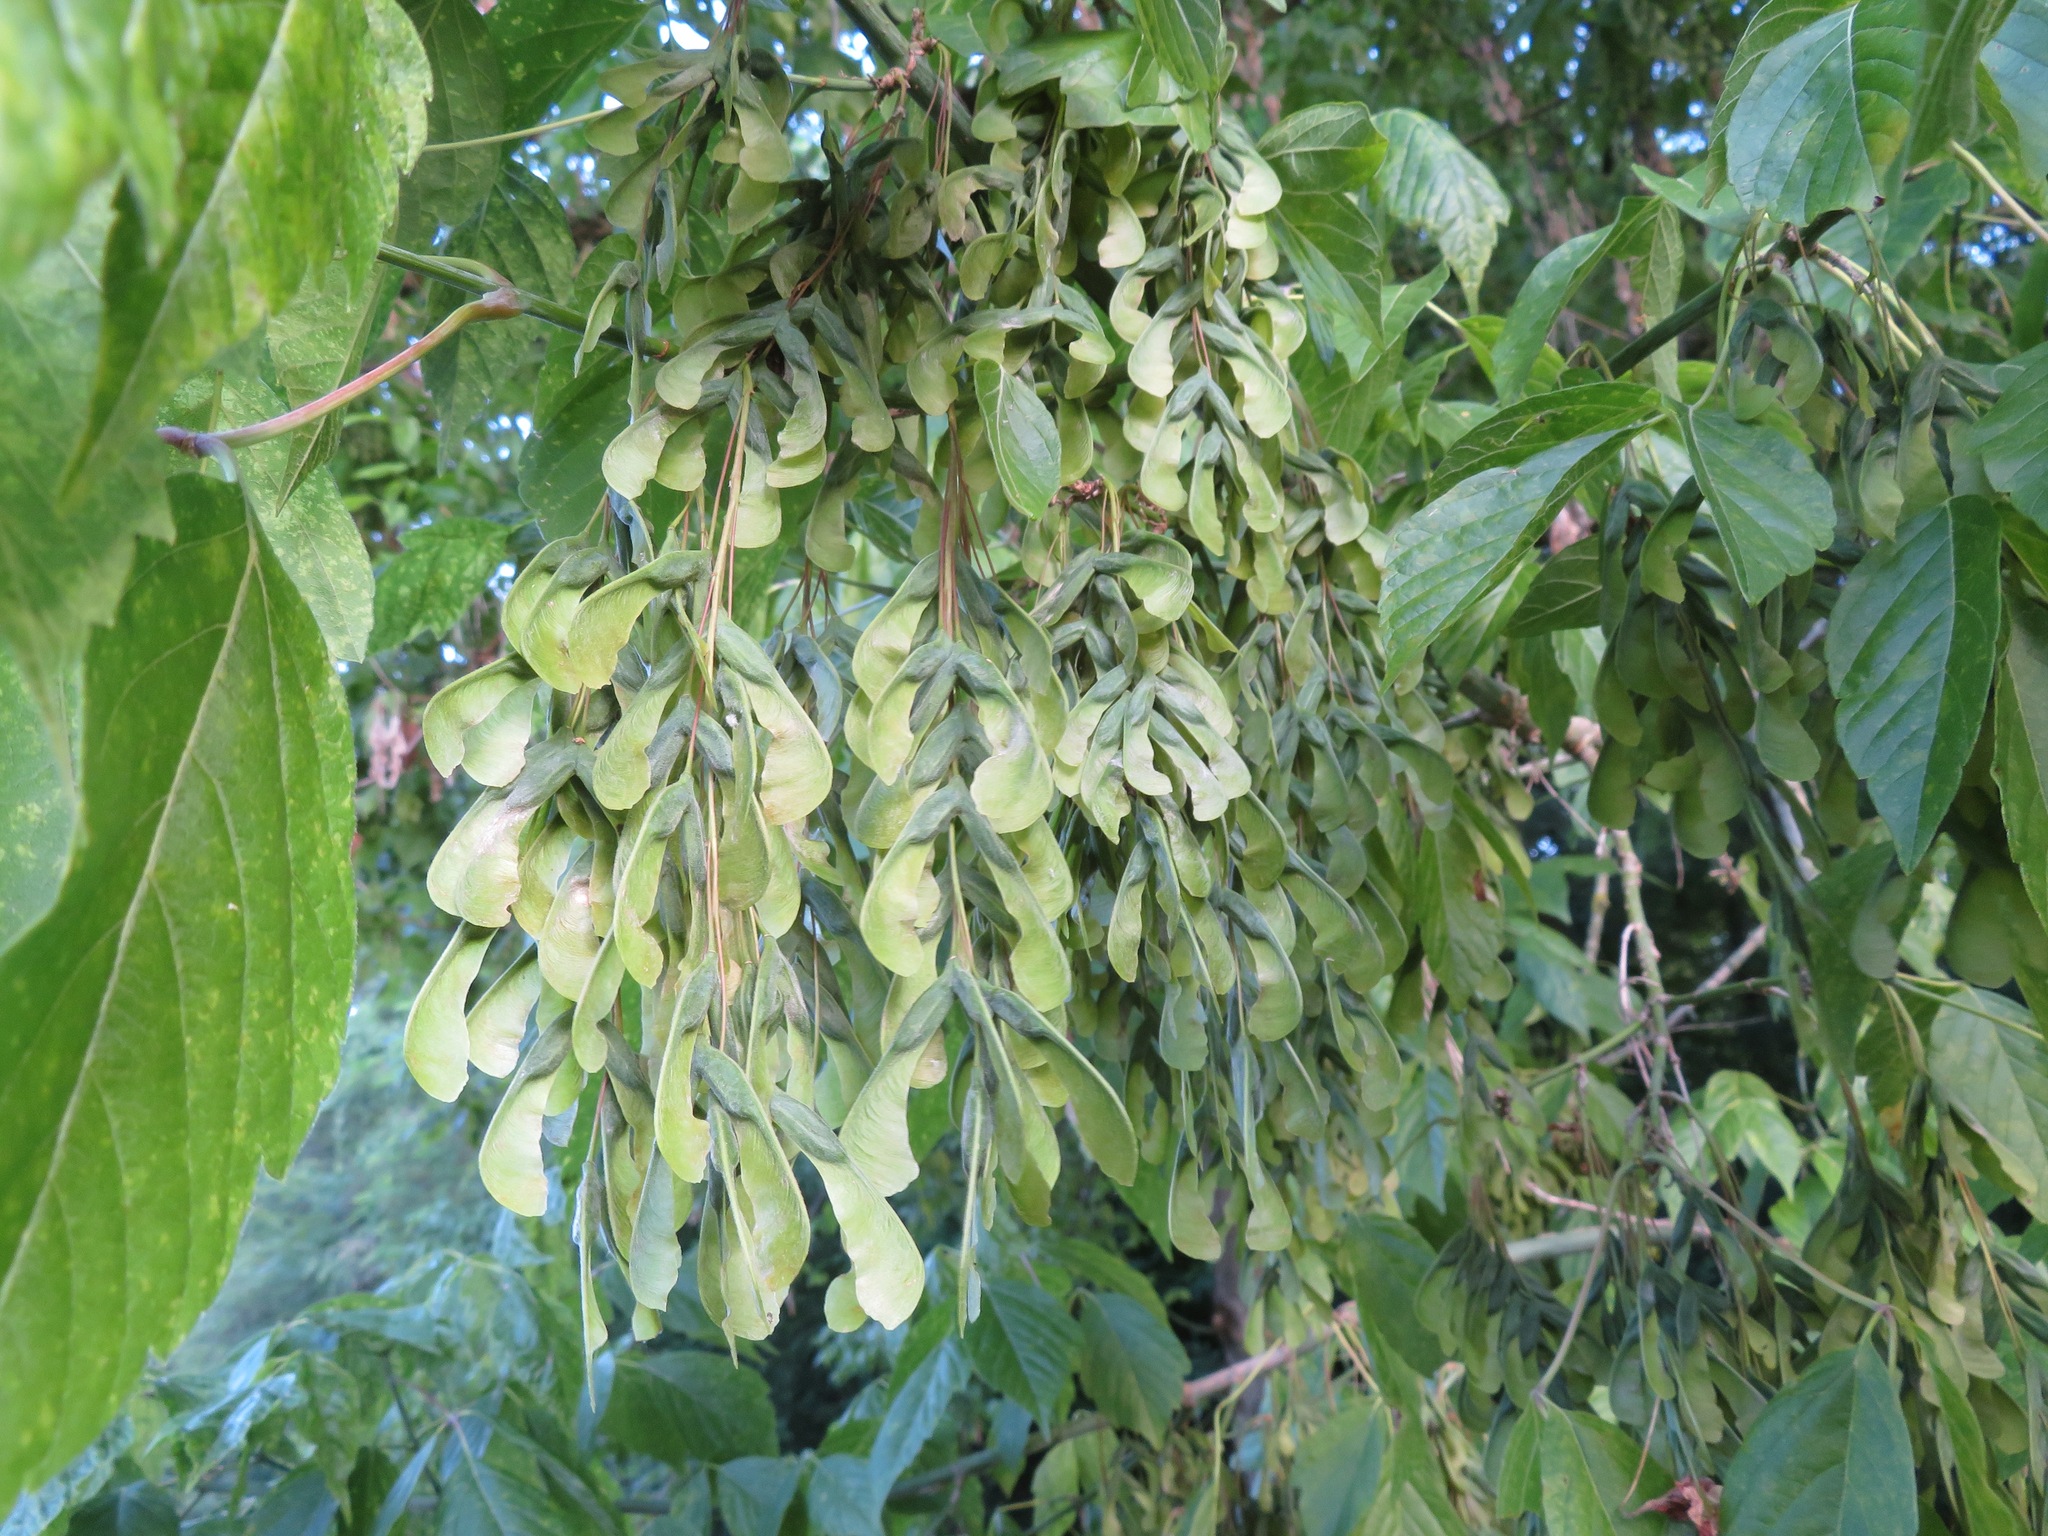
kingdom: Plantae
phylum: Tracheophyta
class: Magnoliopsida
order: Sapindales
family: Sapindaceae
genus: Acer
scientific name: Acer negundo
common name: Ashleaf maple
